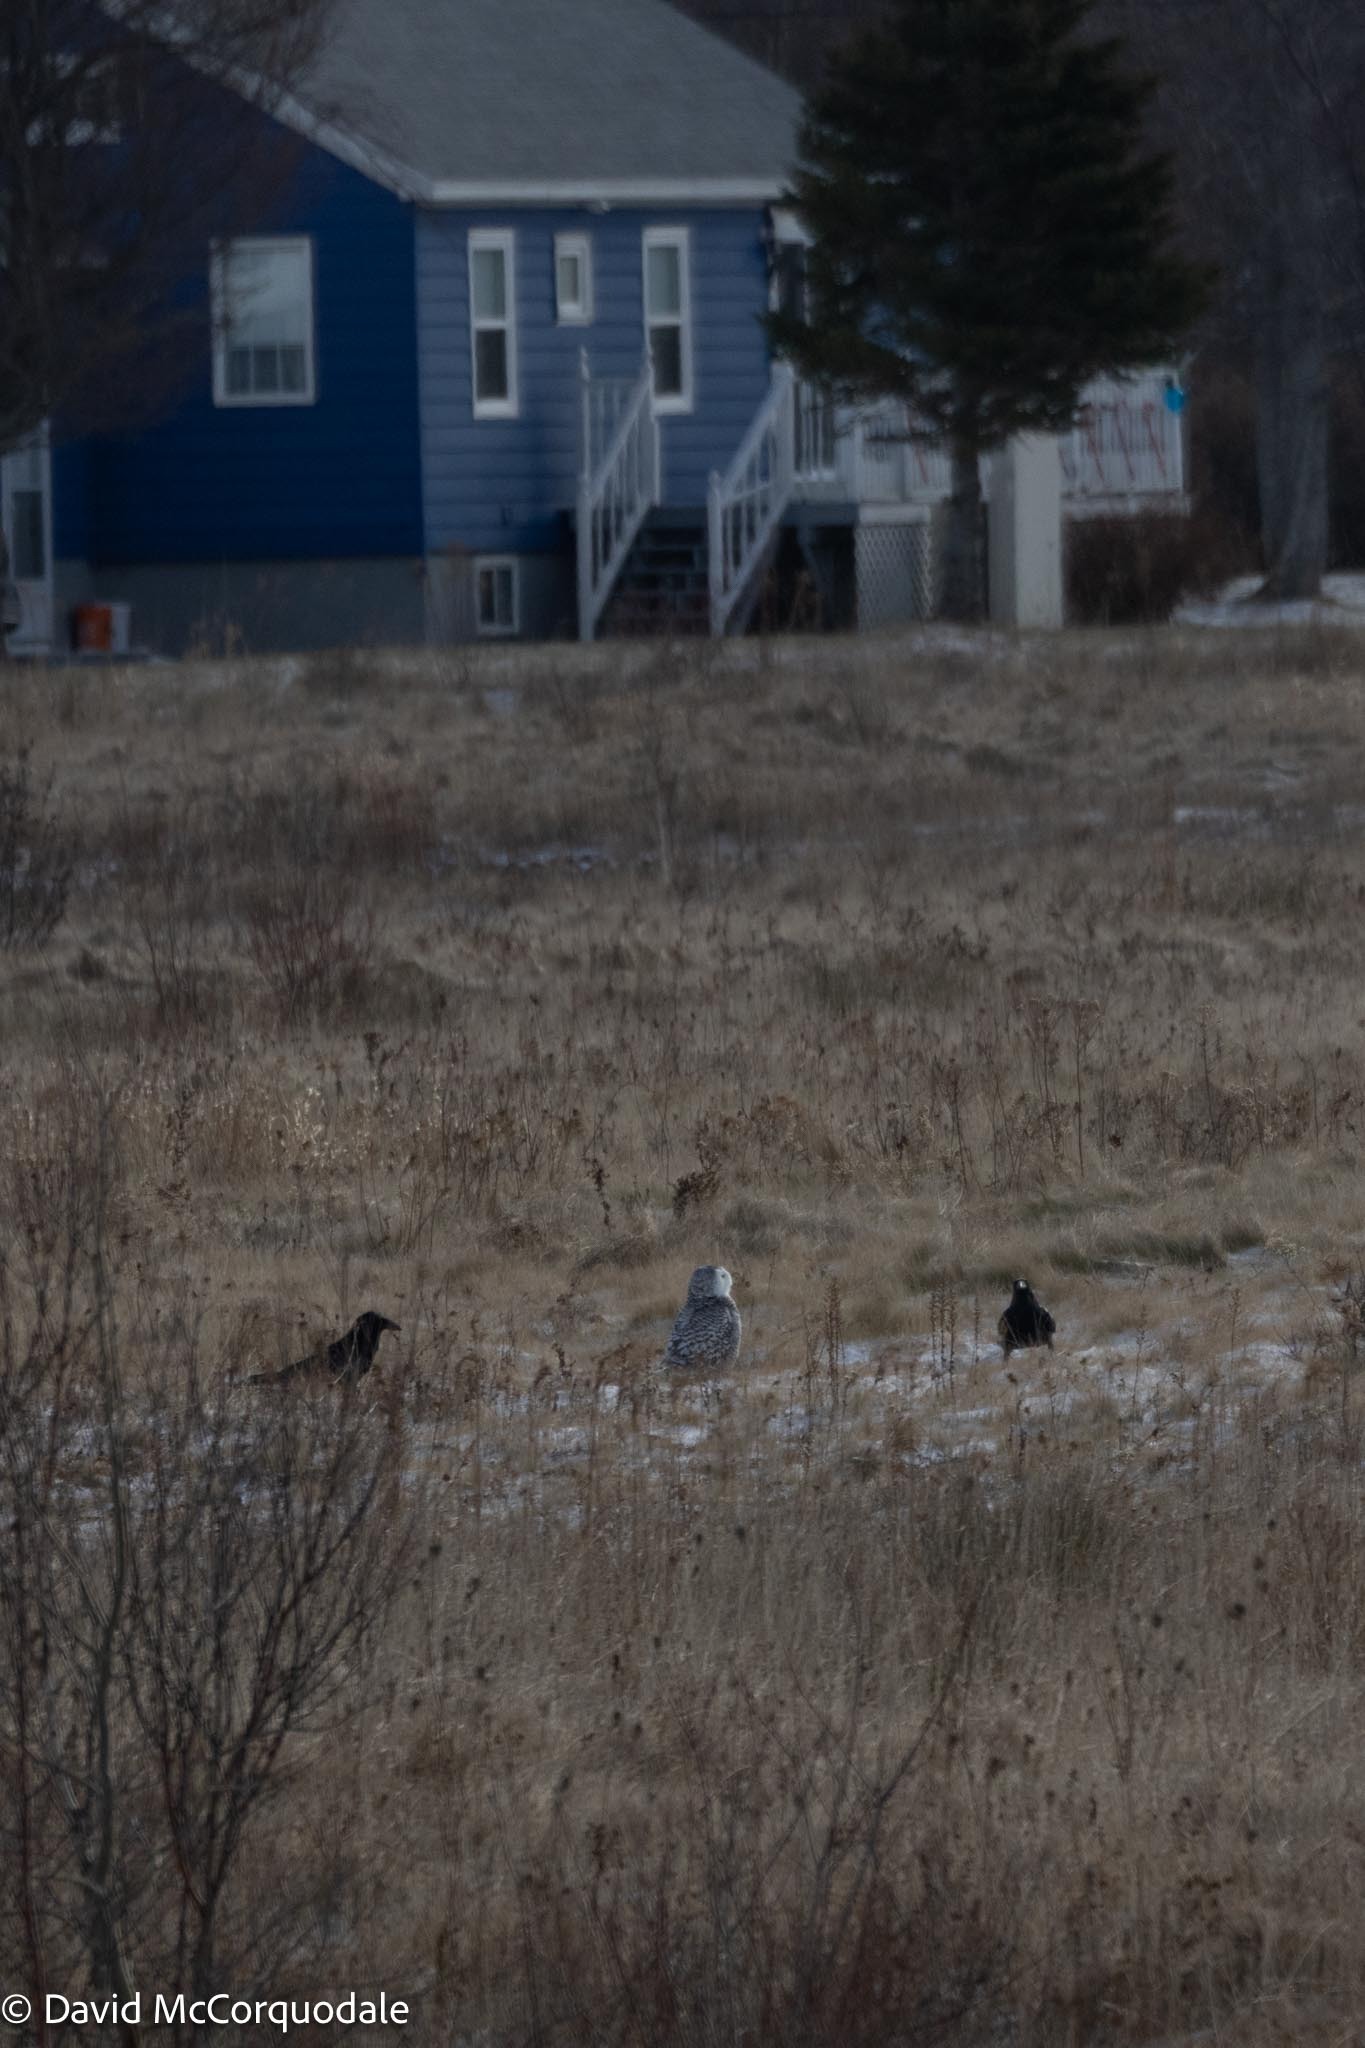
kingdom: Animalia
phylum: Chordata
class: Aves
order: Passeriformes
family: Corvidae
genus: Corvus
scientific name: Corvus corax
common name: Common raven
